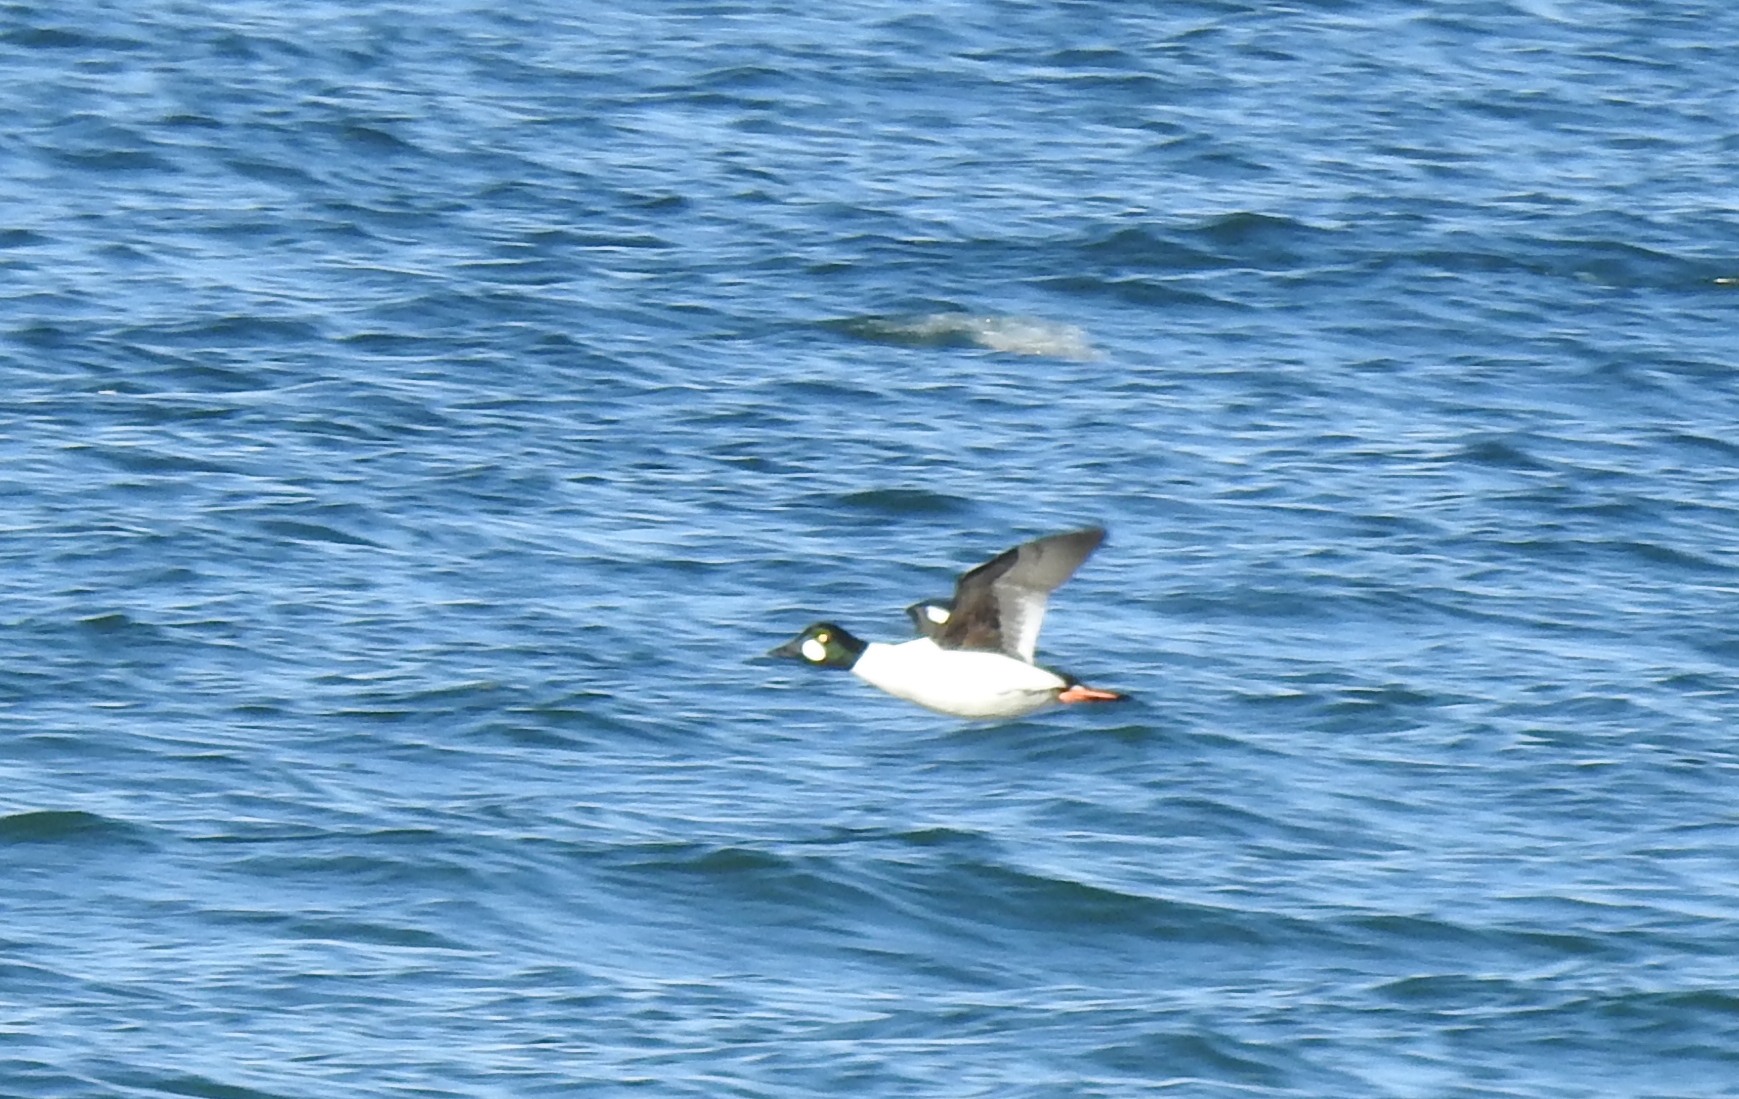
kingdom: Animalia
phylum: Chordata
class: Aves
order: Anseriformes
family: Anatidae
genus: Bucephala
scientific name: Bucephala clangula
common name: Common goldeneye
